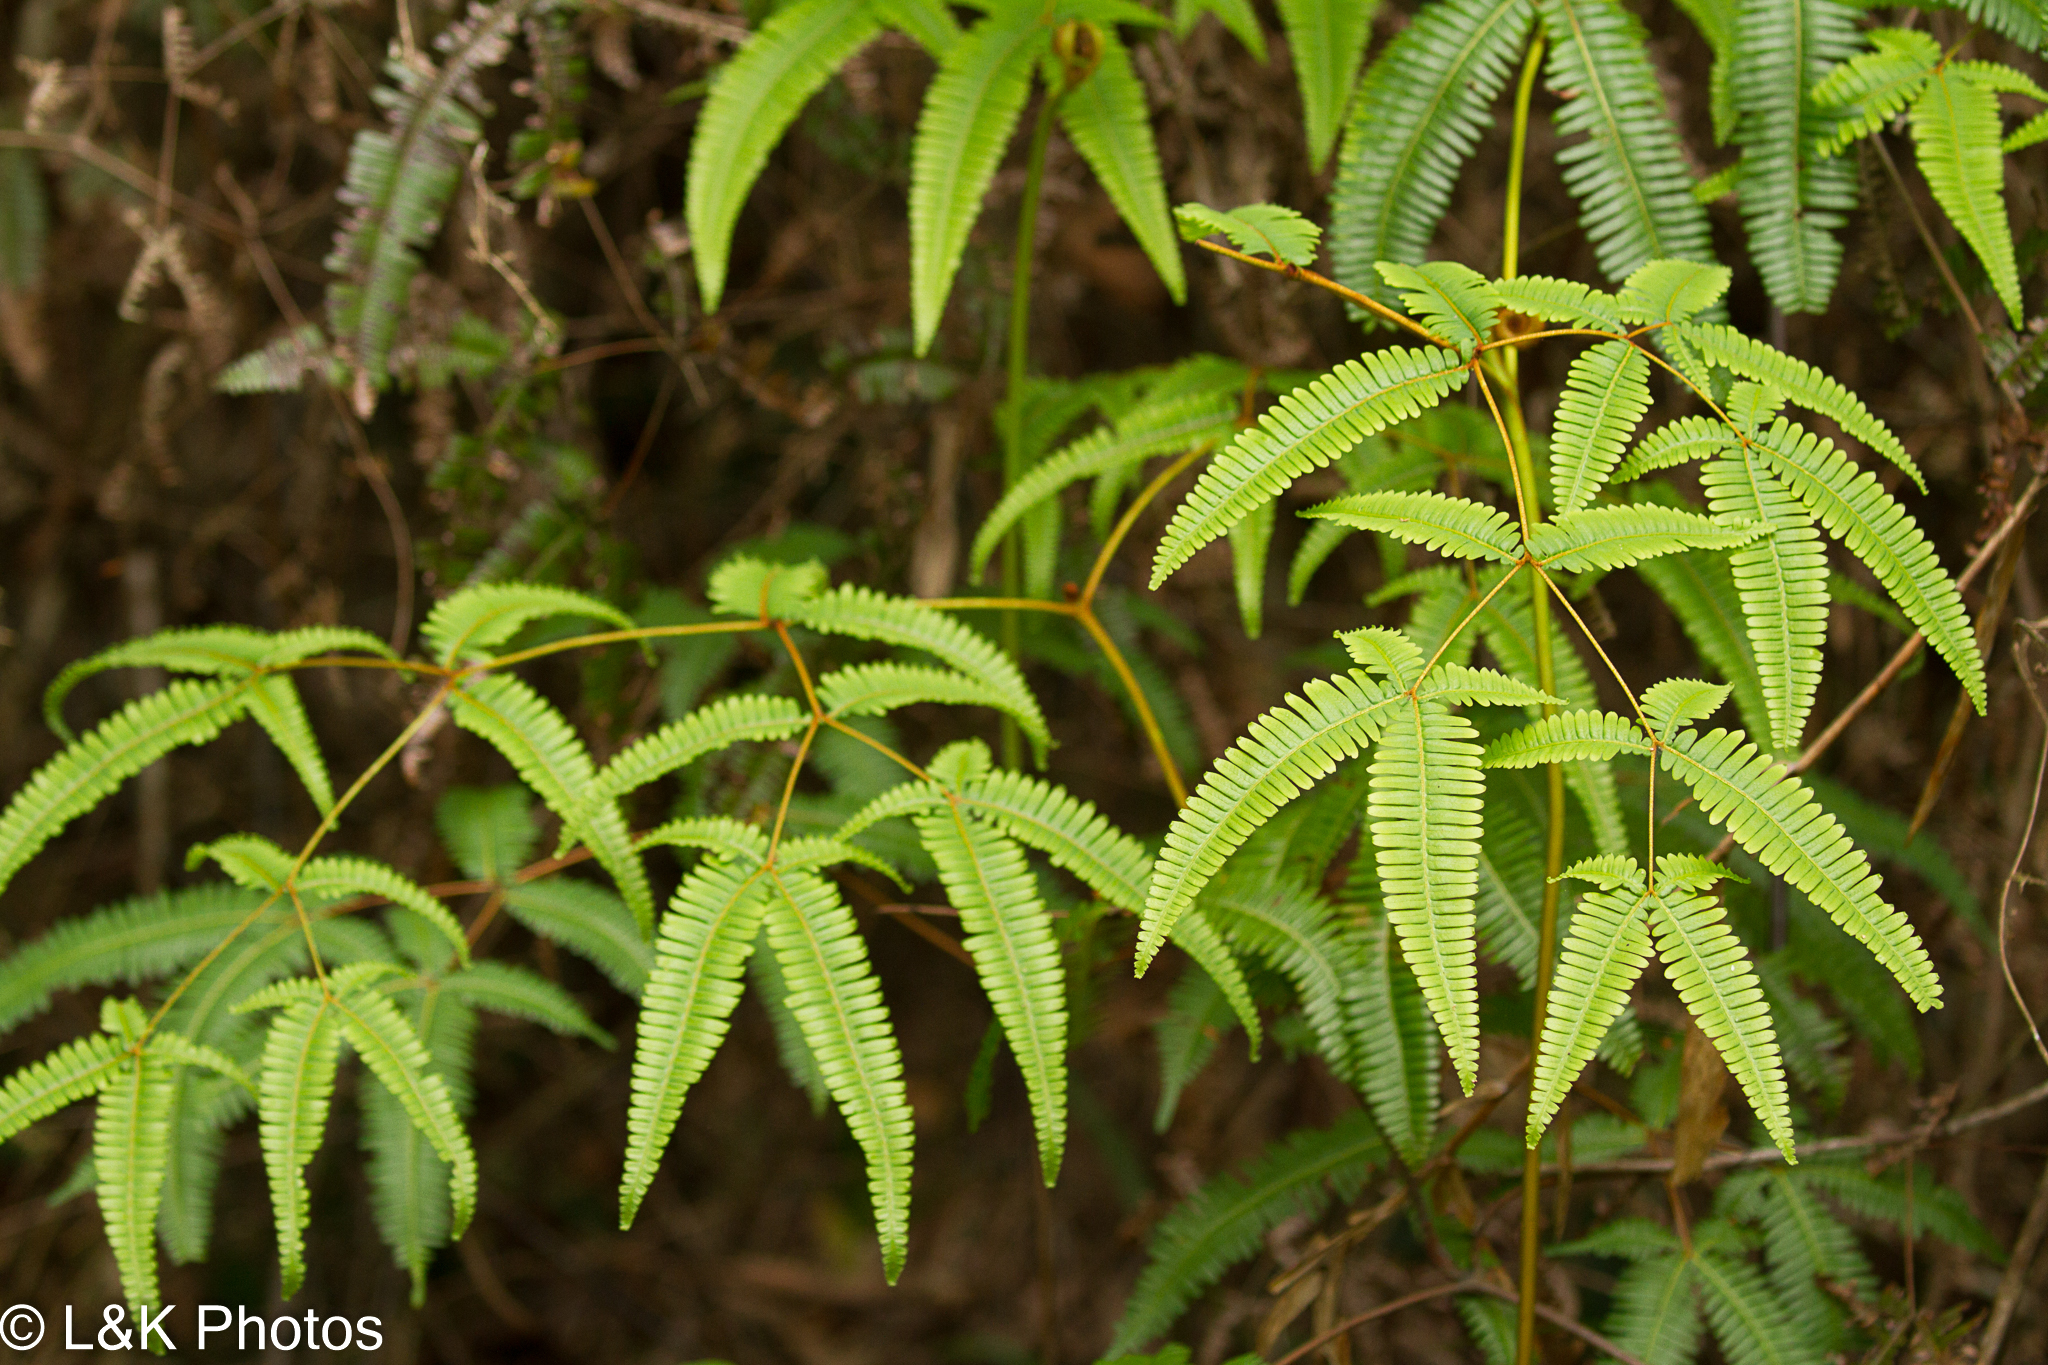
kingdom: Plantae
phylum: Tracheophyta
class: Polypodiopsida
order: Gleicheniales
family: Gleicheniaceae
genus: Dicranopteris
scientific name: Dicranopteris linearis
